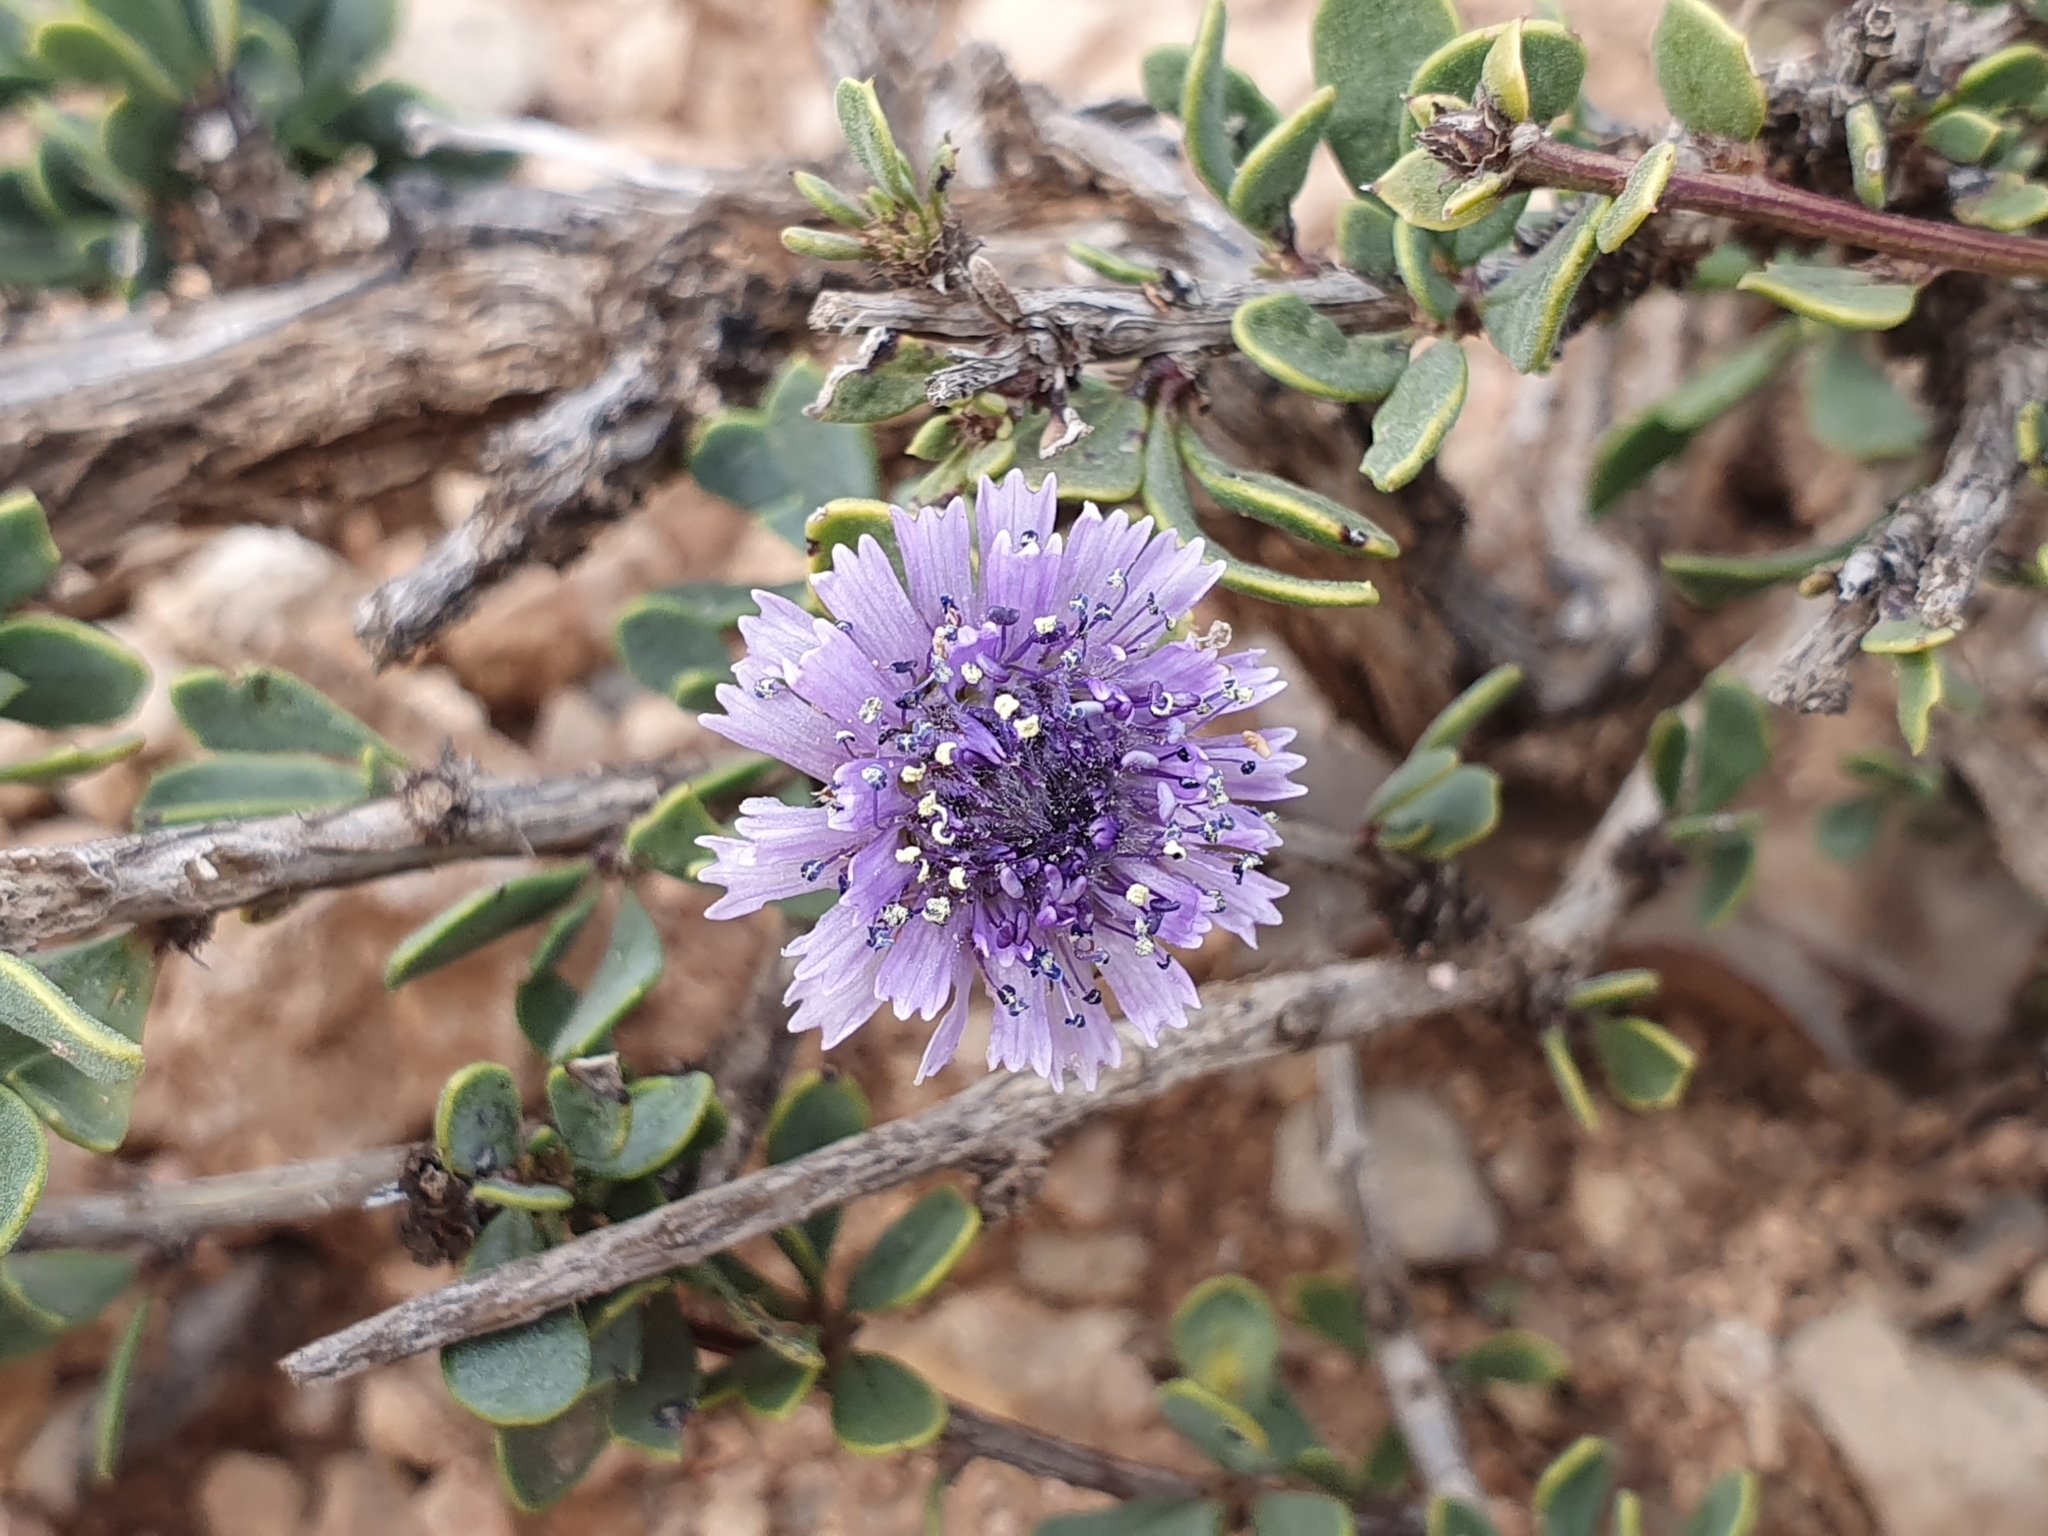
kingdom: Plantae
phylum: Tracheophyta
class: Magnoliopsida
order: Lamiales
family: Plantaginaceae
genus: Globularia
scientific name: Globularia alypum
